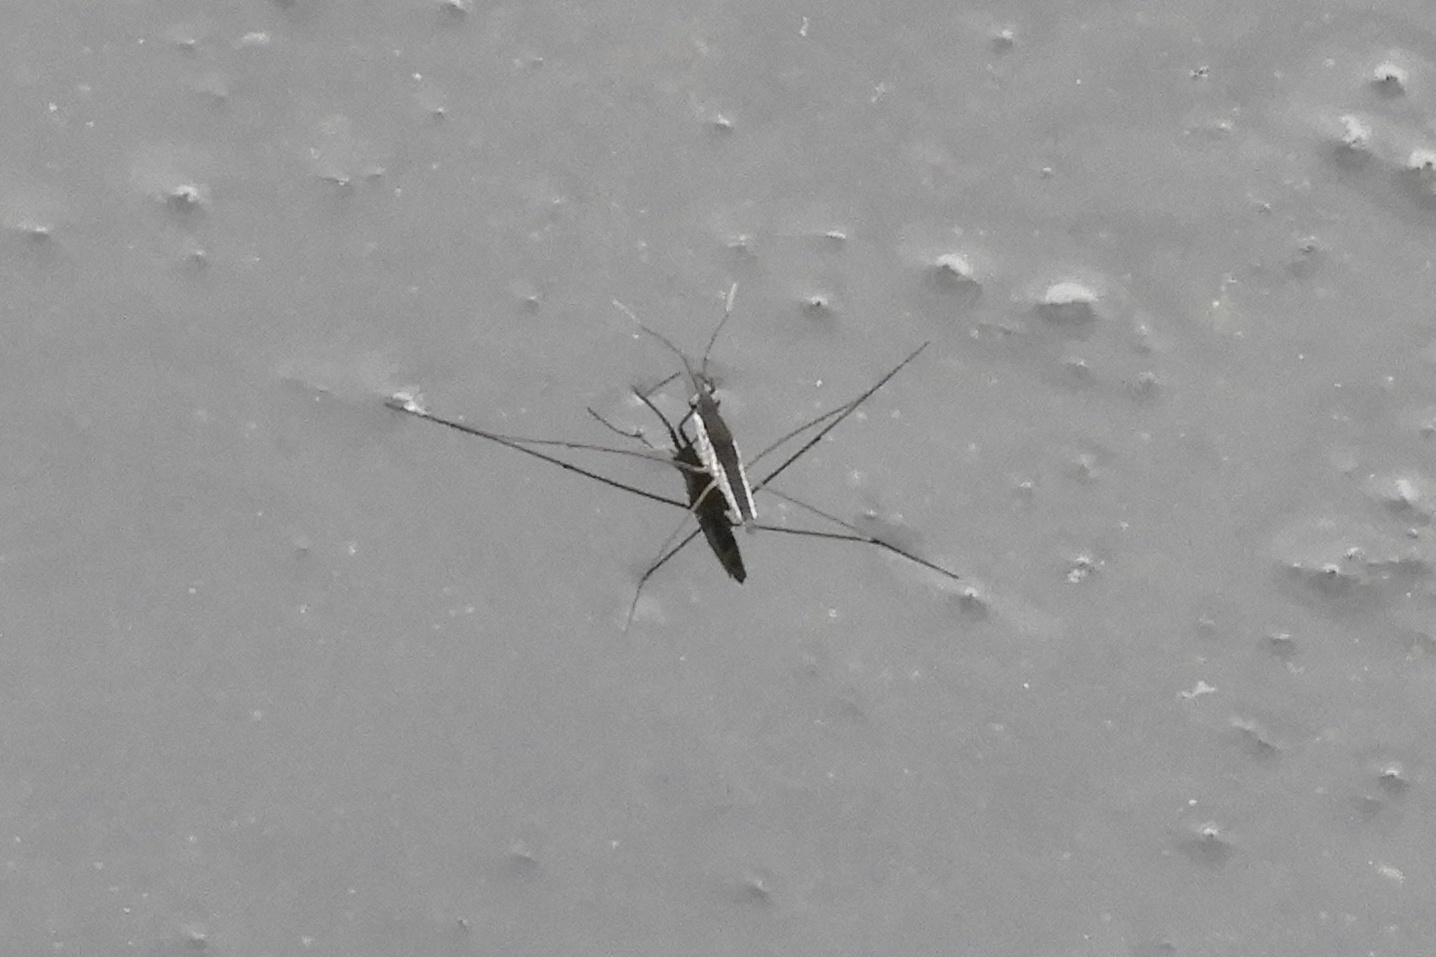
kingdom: Animalia
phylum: Arthropoda
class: Insecta
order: Hemiptera
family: Gerridae
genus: Limnoporus
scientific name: Limnoporus canaliculatus
